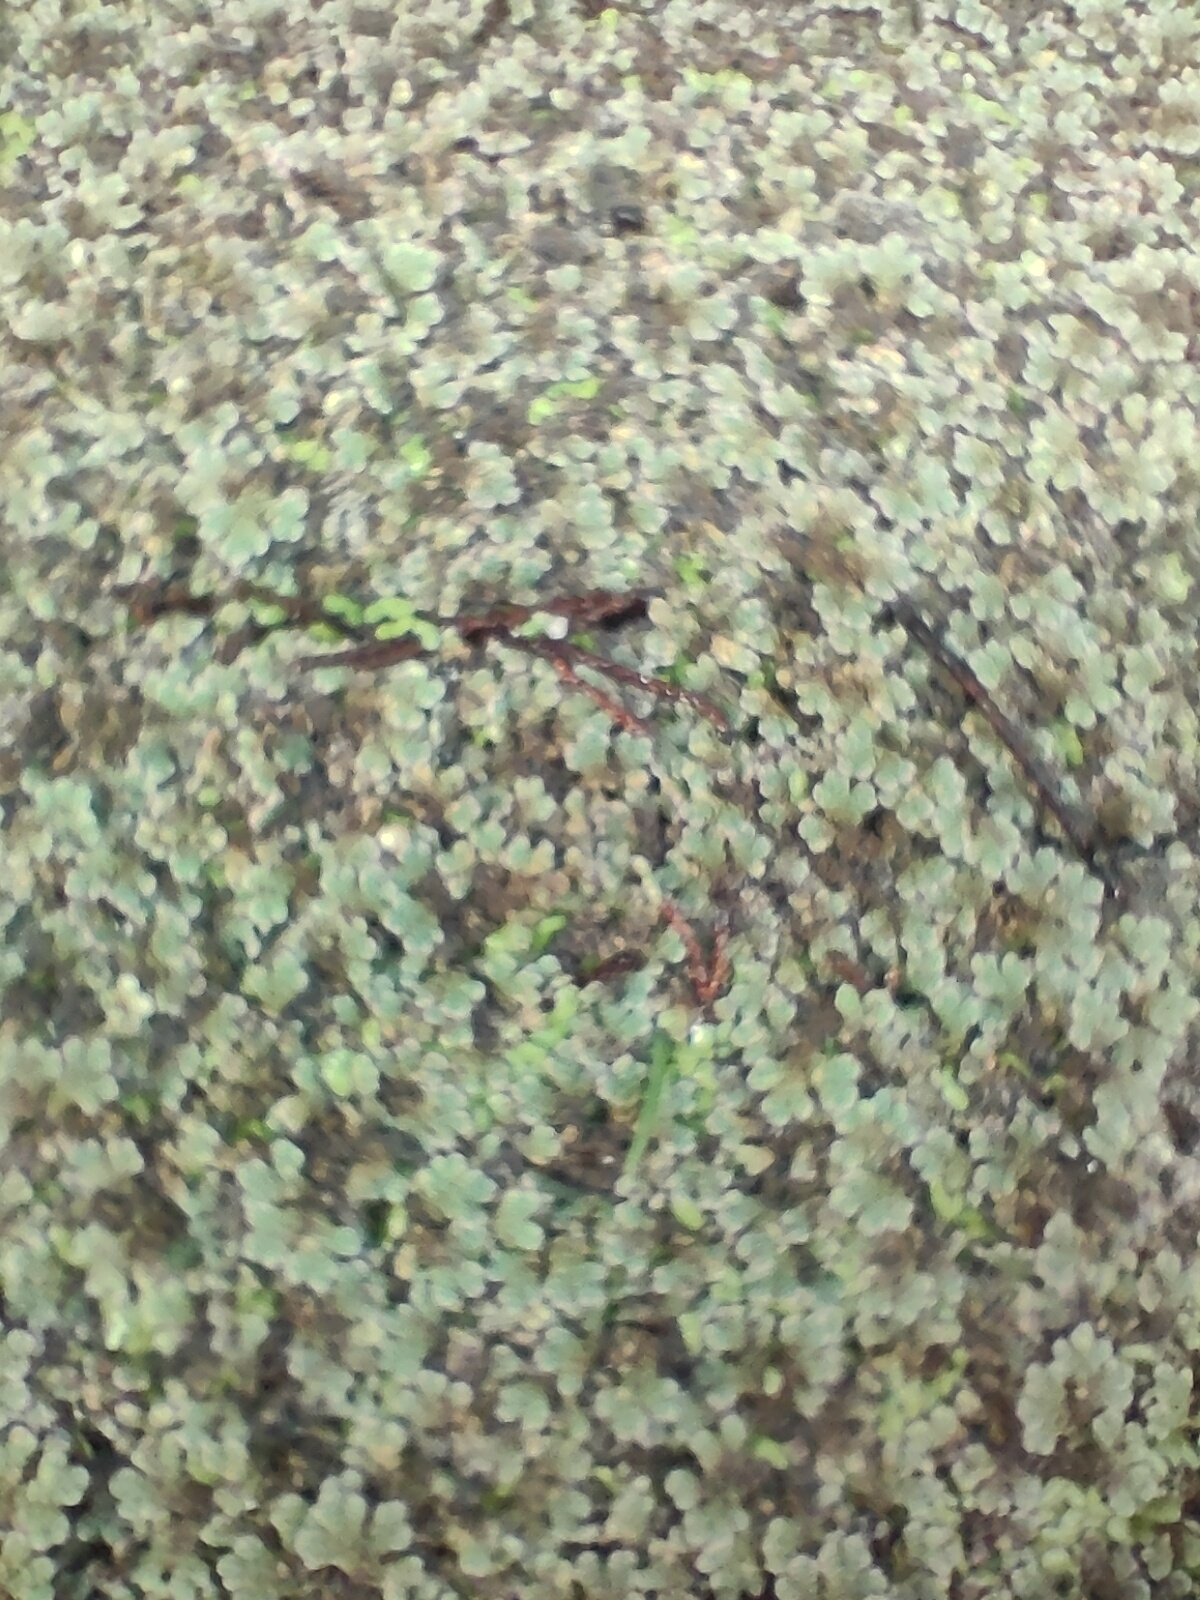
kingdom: Plantae
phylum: Tracheophyta
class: Polypodiopsida
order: Salviniales
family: Salviniaceae
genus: Azolla
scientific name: Azolla rubra
